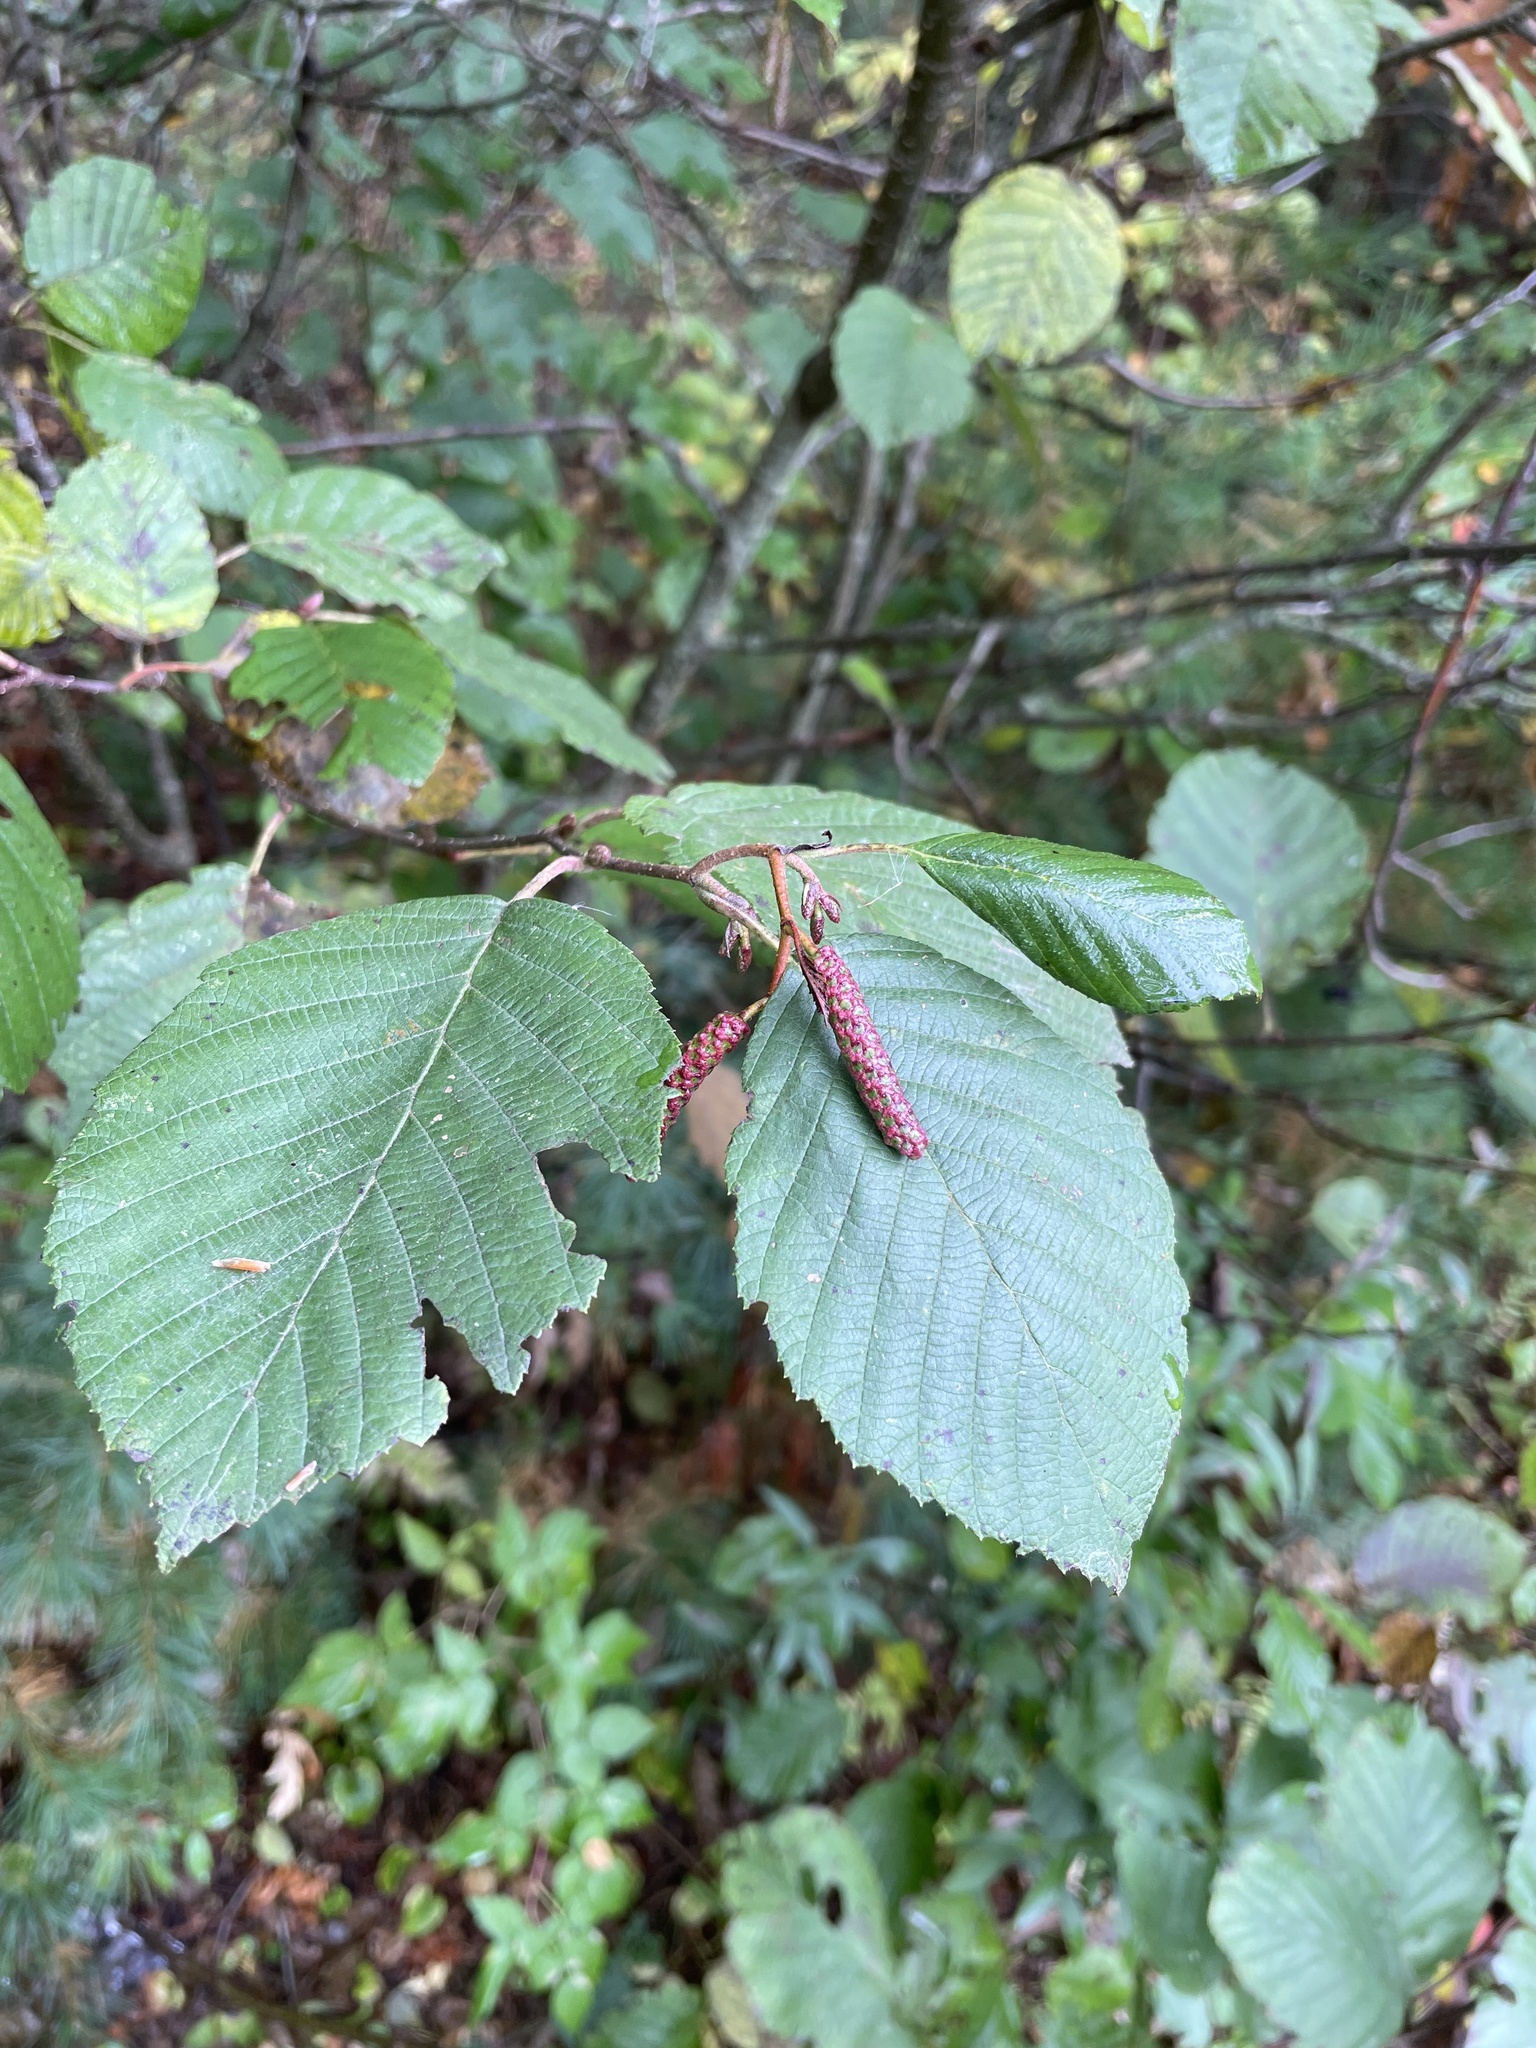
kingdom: Plantae
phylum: Tracheophyta
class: Magnoliopsida
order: Fagales
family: Betulaceae
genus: Alnus
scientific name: Alnus incana
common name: Grey alder
